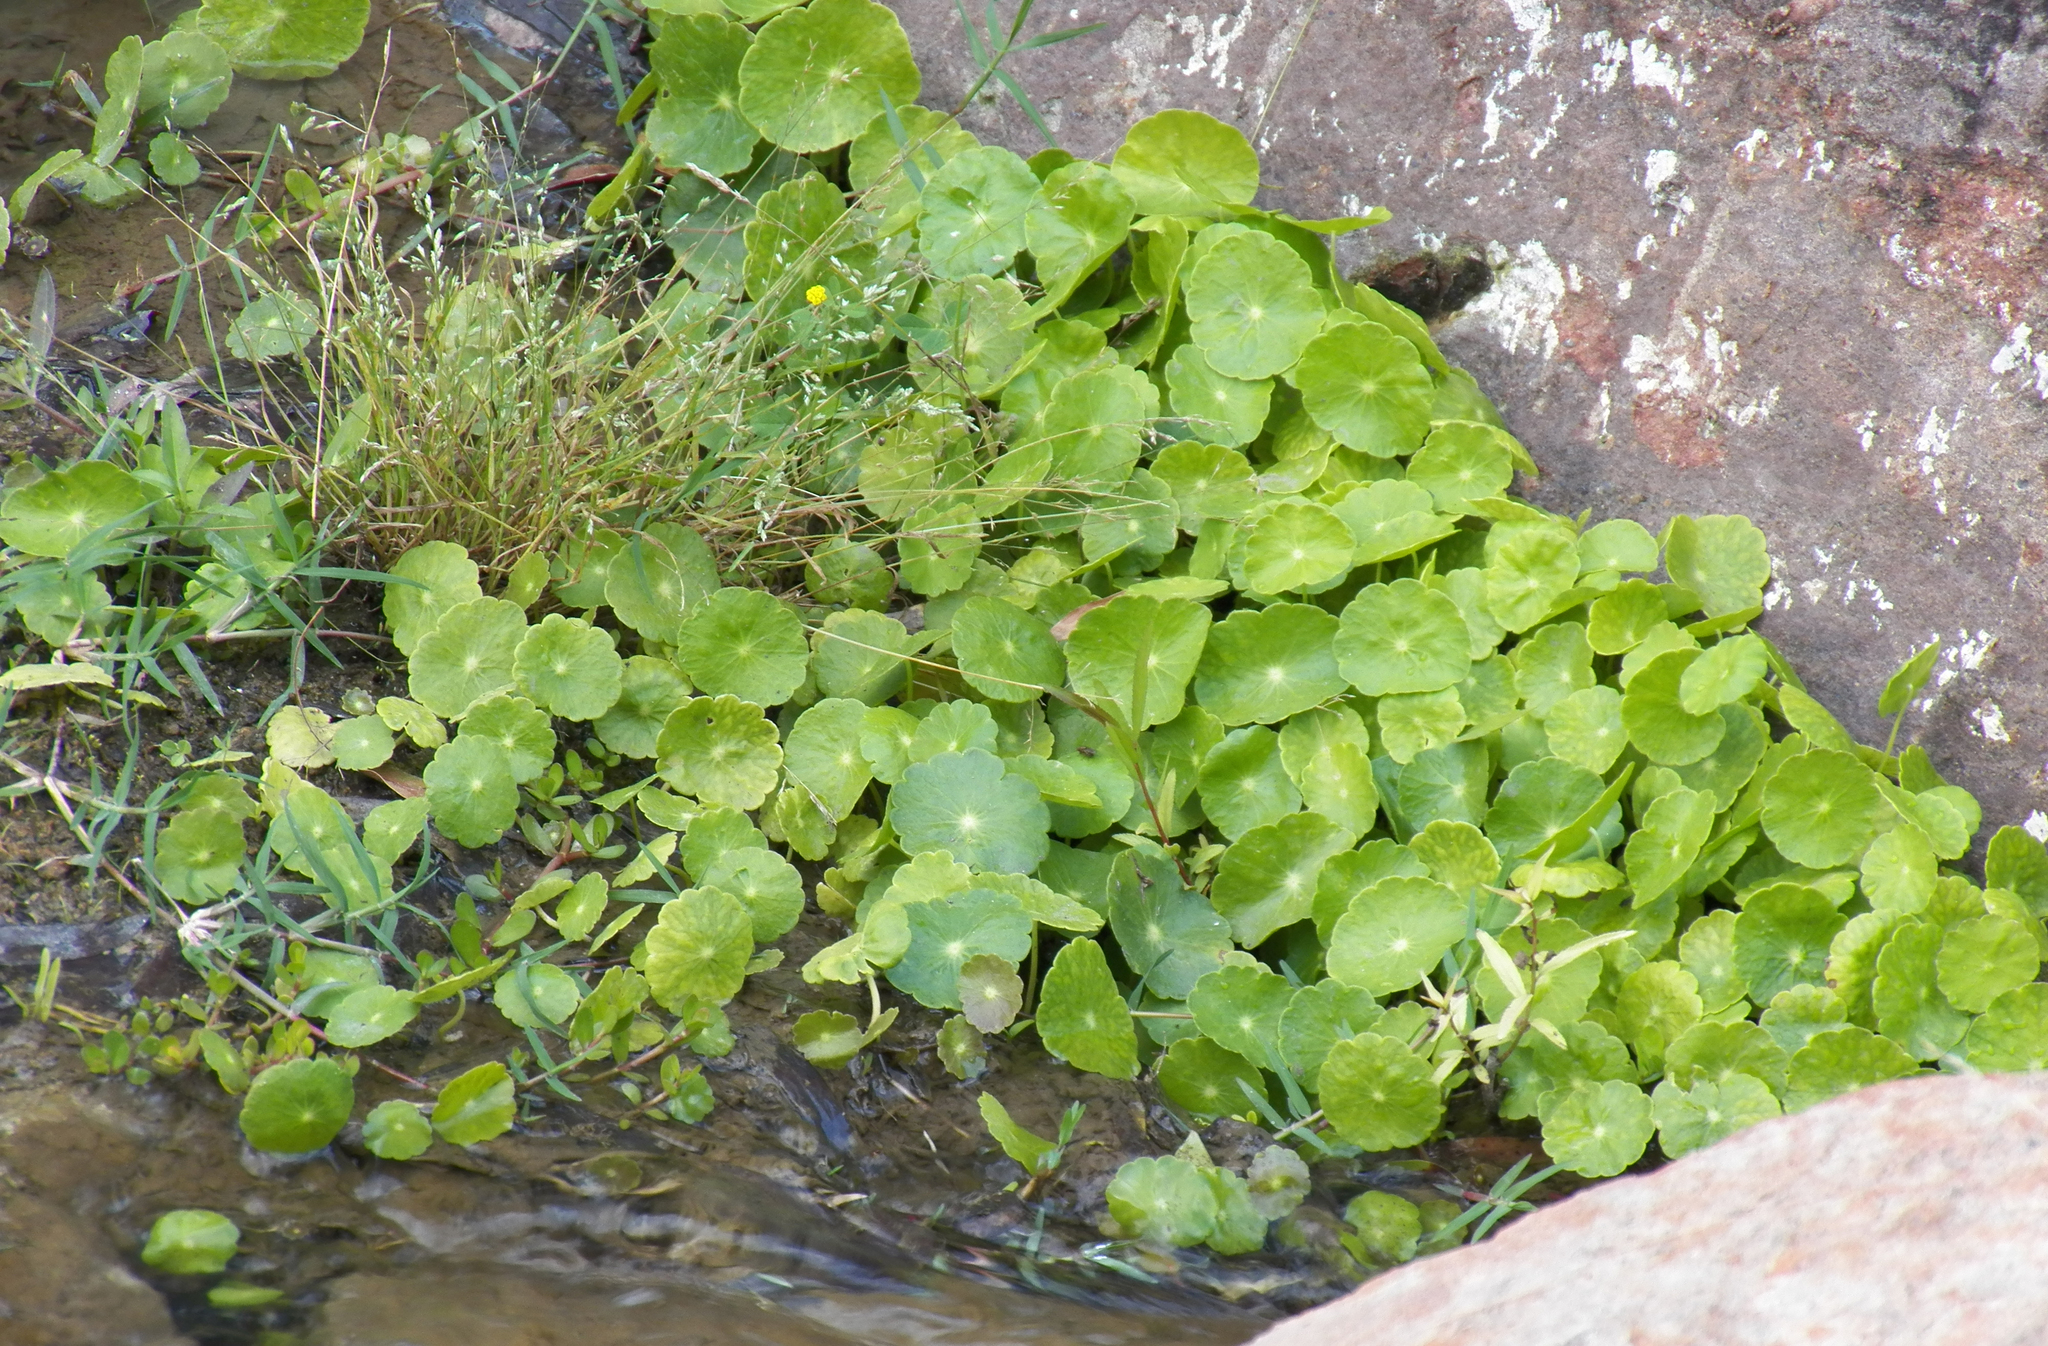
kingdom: Plantae
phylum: Tracheophyta
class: Magnoliopsida
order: Apiales
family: Araliaceae
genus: Hydrocotyle
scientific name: Hydrocotyle verticillata
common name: Whorled marshpennywort
